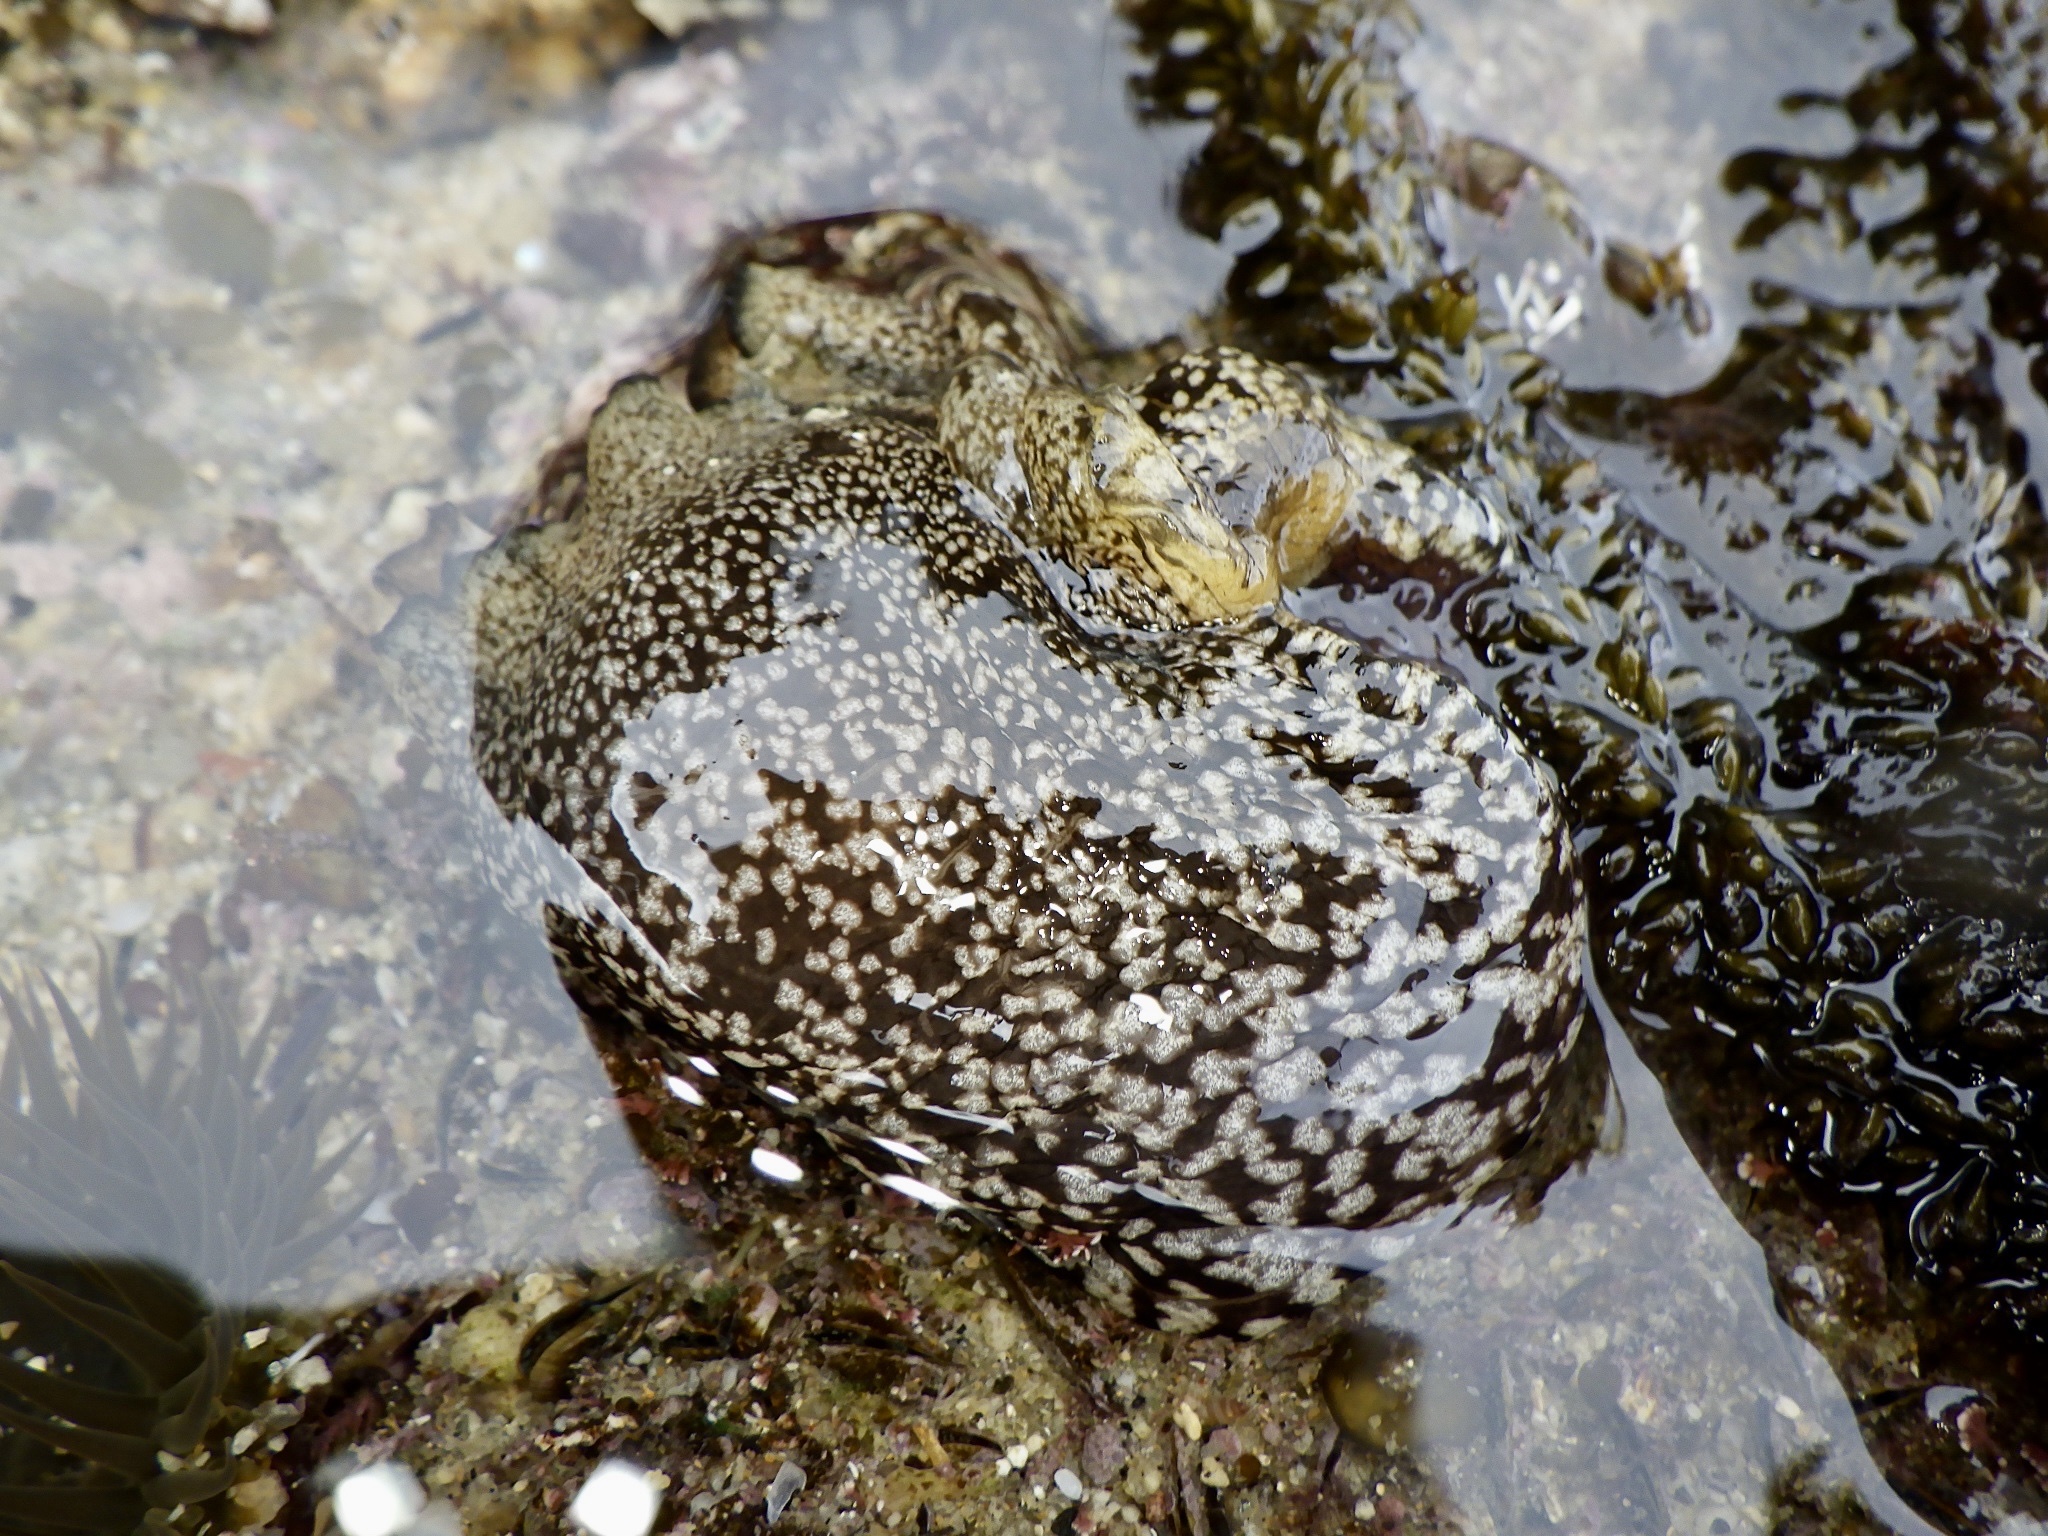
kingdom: Animalia
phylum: Mollusca
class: Gastropoda
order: Aplysiida
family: Aplysiidae
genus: Aplysia
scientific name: Aplysia kurodai
